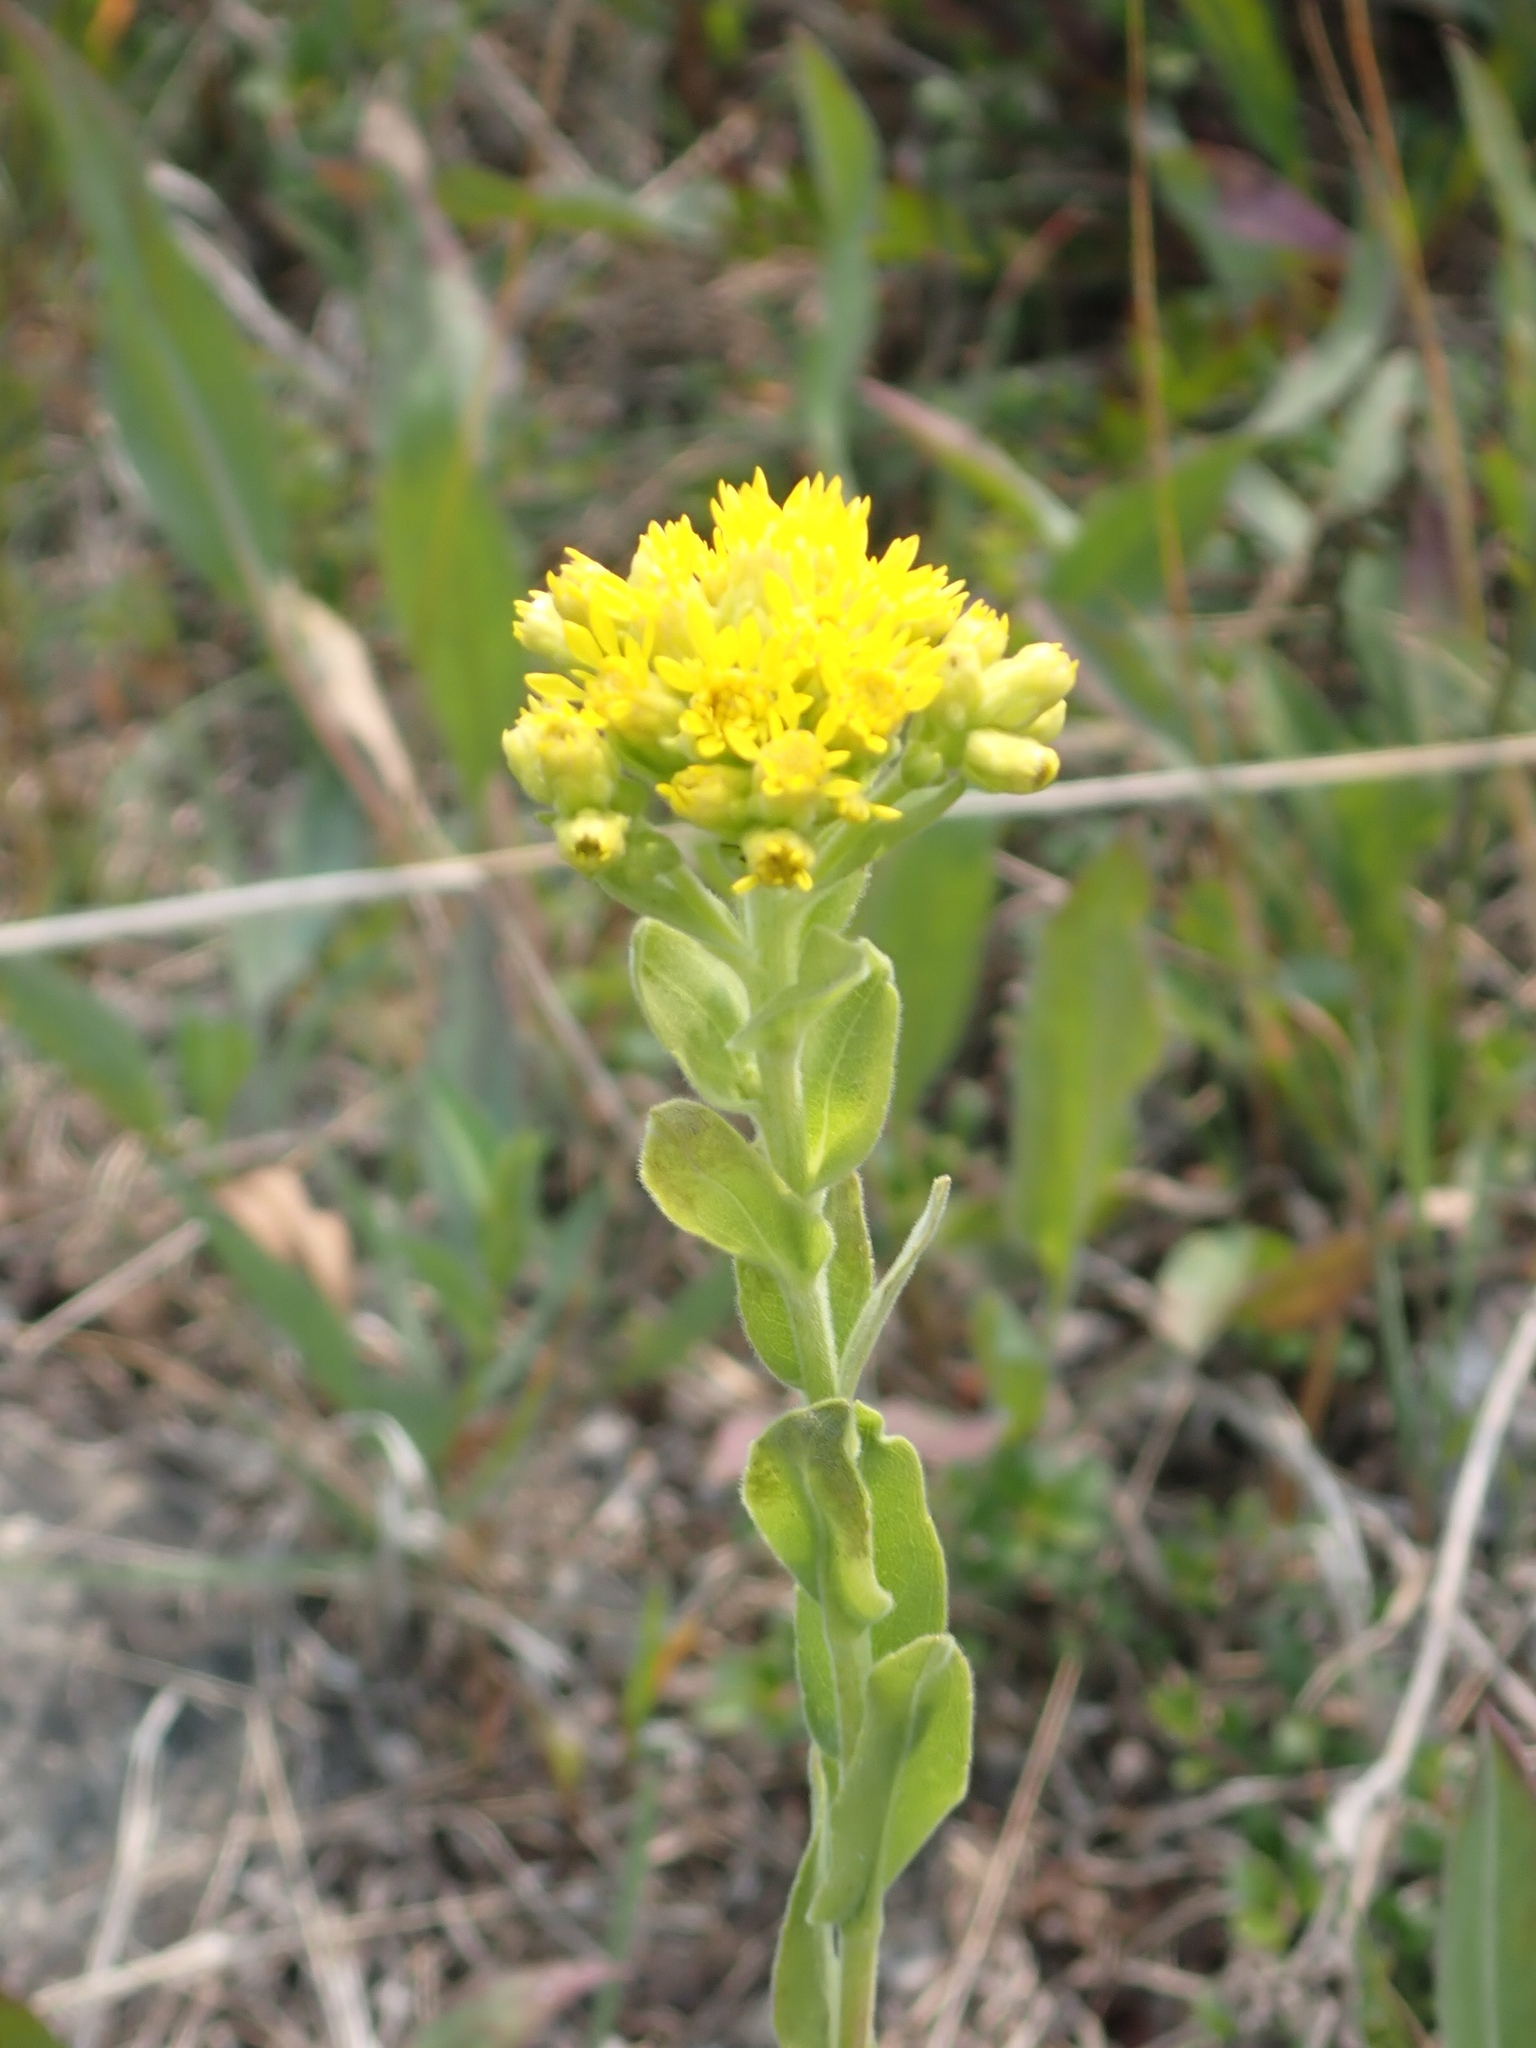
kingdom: Plantae
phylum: Tracheophyta
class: Magnoliopsida
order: Asterales
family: Asteraceae
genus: Solidago
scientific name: Solidago rigida
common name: Rigid goldenrod
